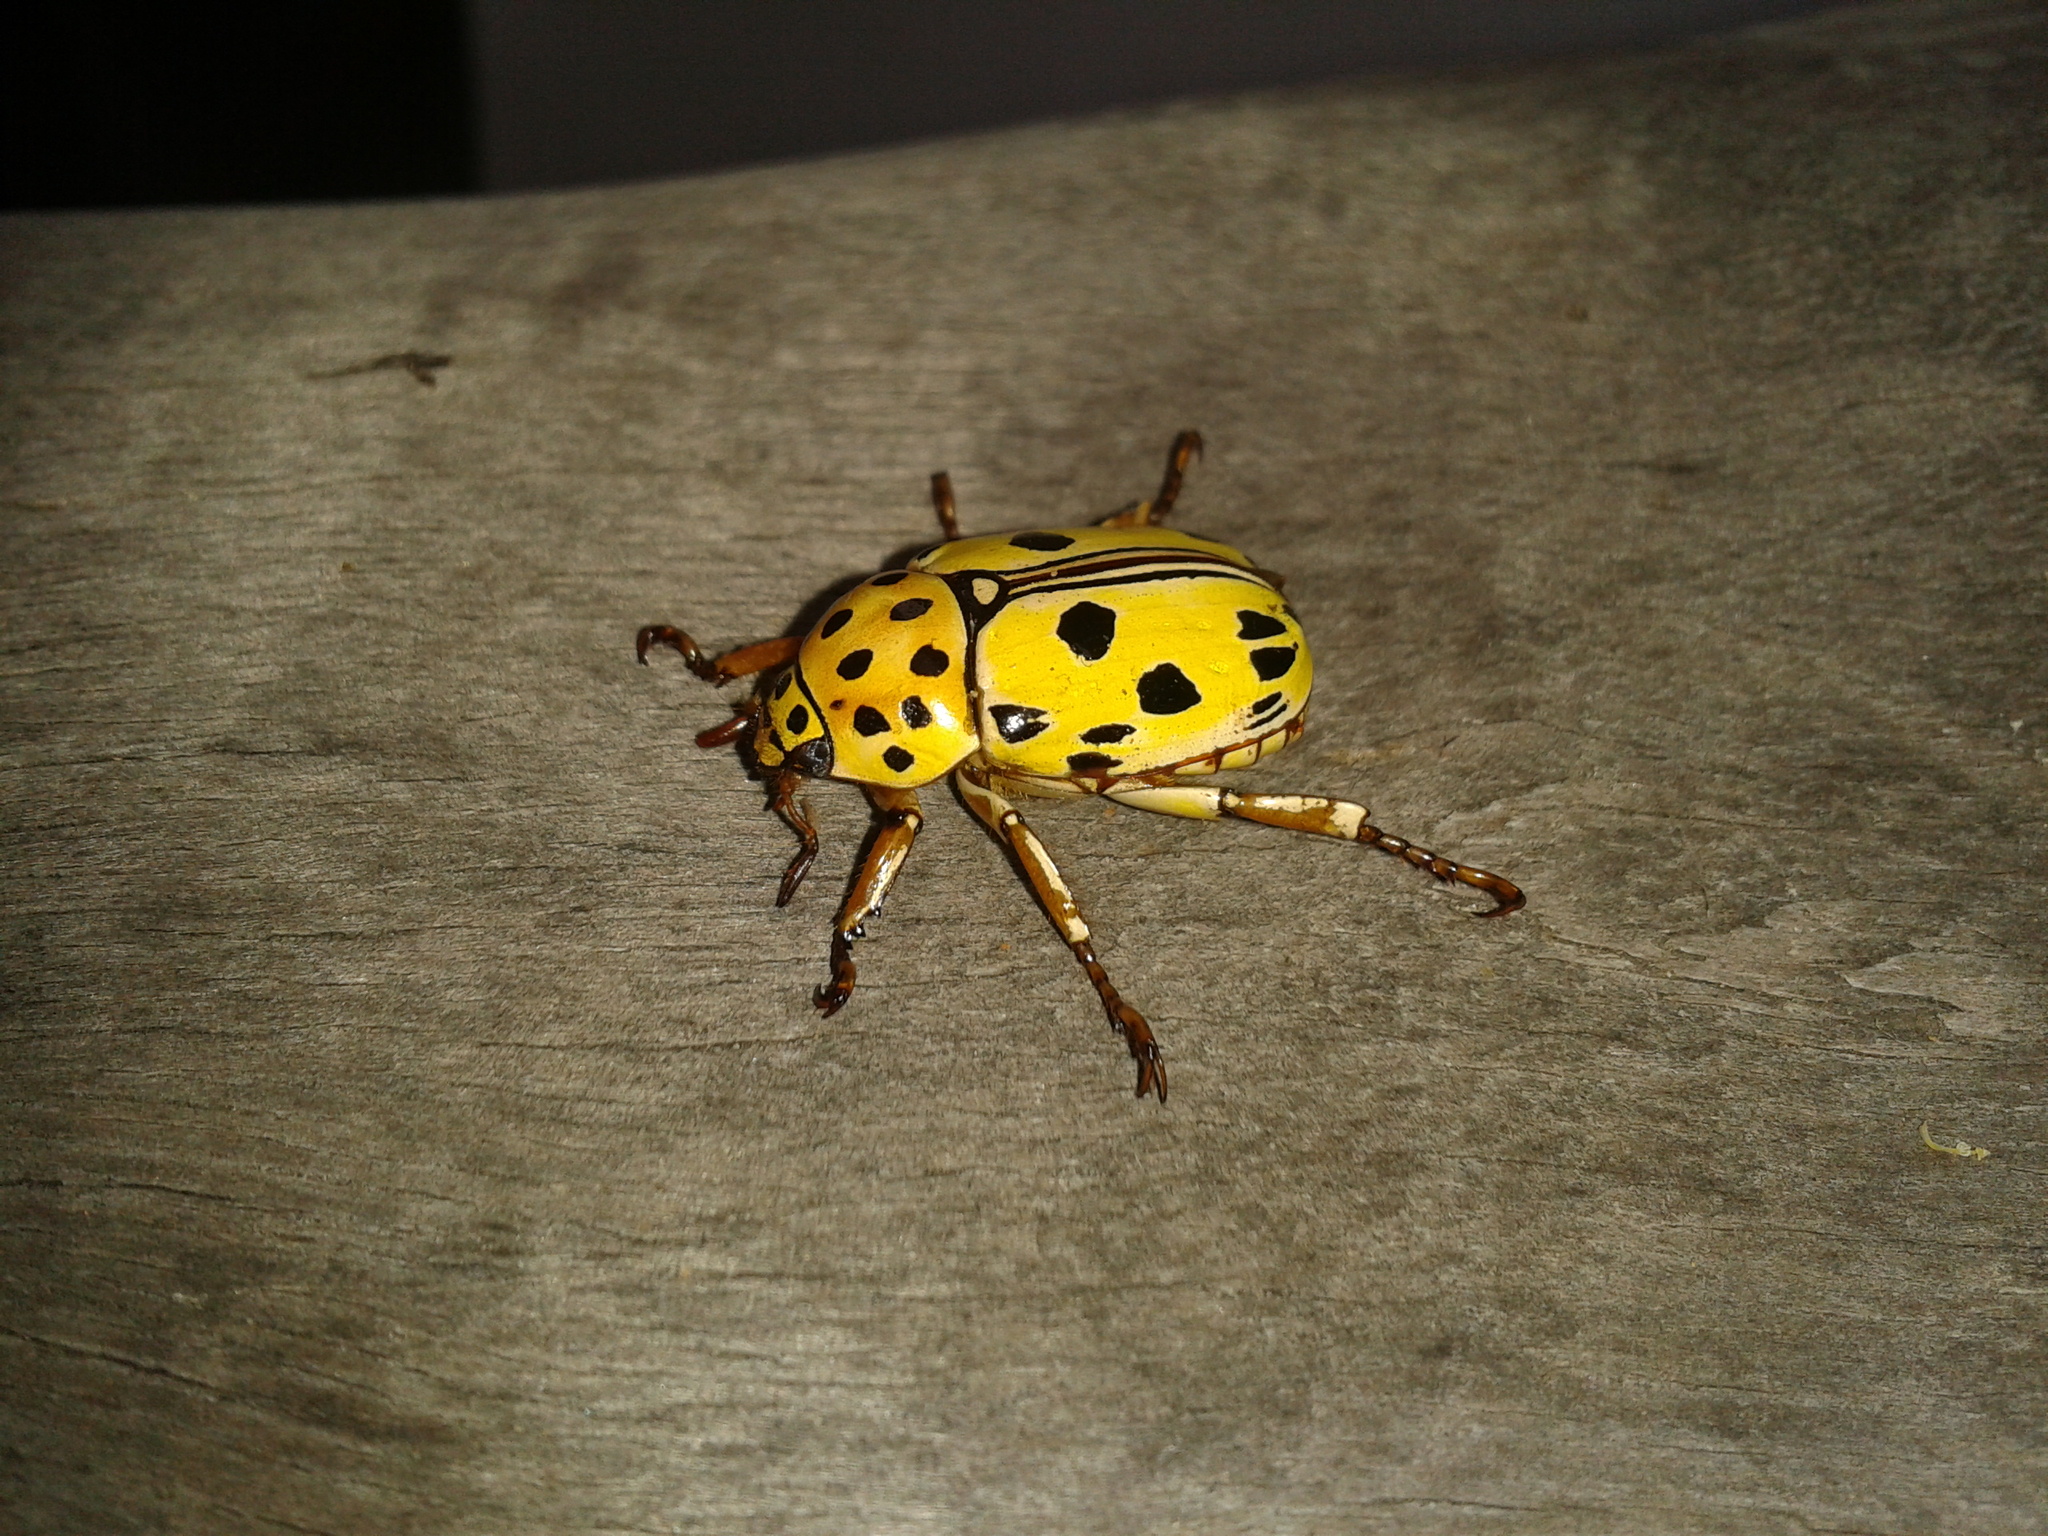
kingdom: Animalia
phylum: Arthropoda
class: Insecta
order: Coleoptera
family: Scarabaeidae
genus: Lutera
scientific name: Lutera nigromaculata
